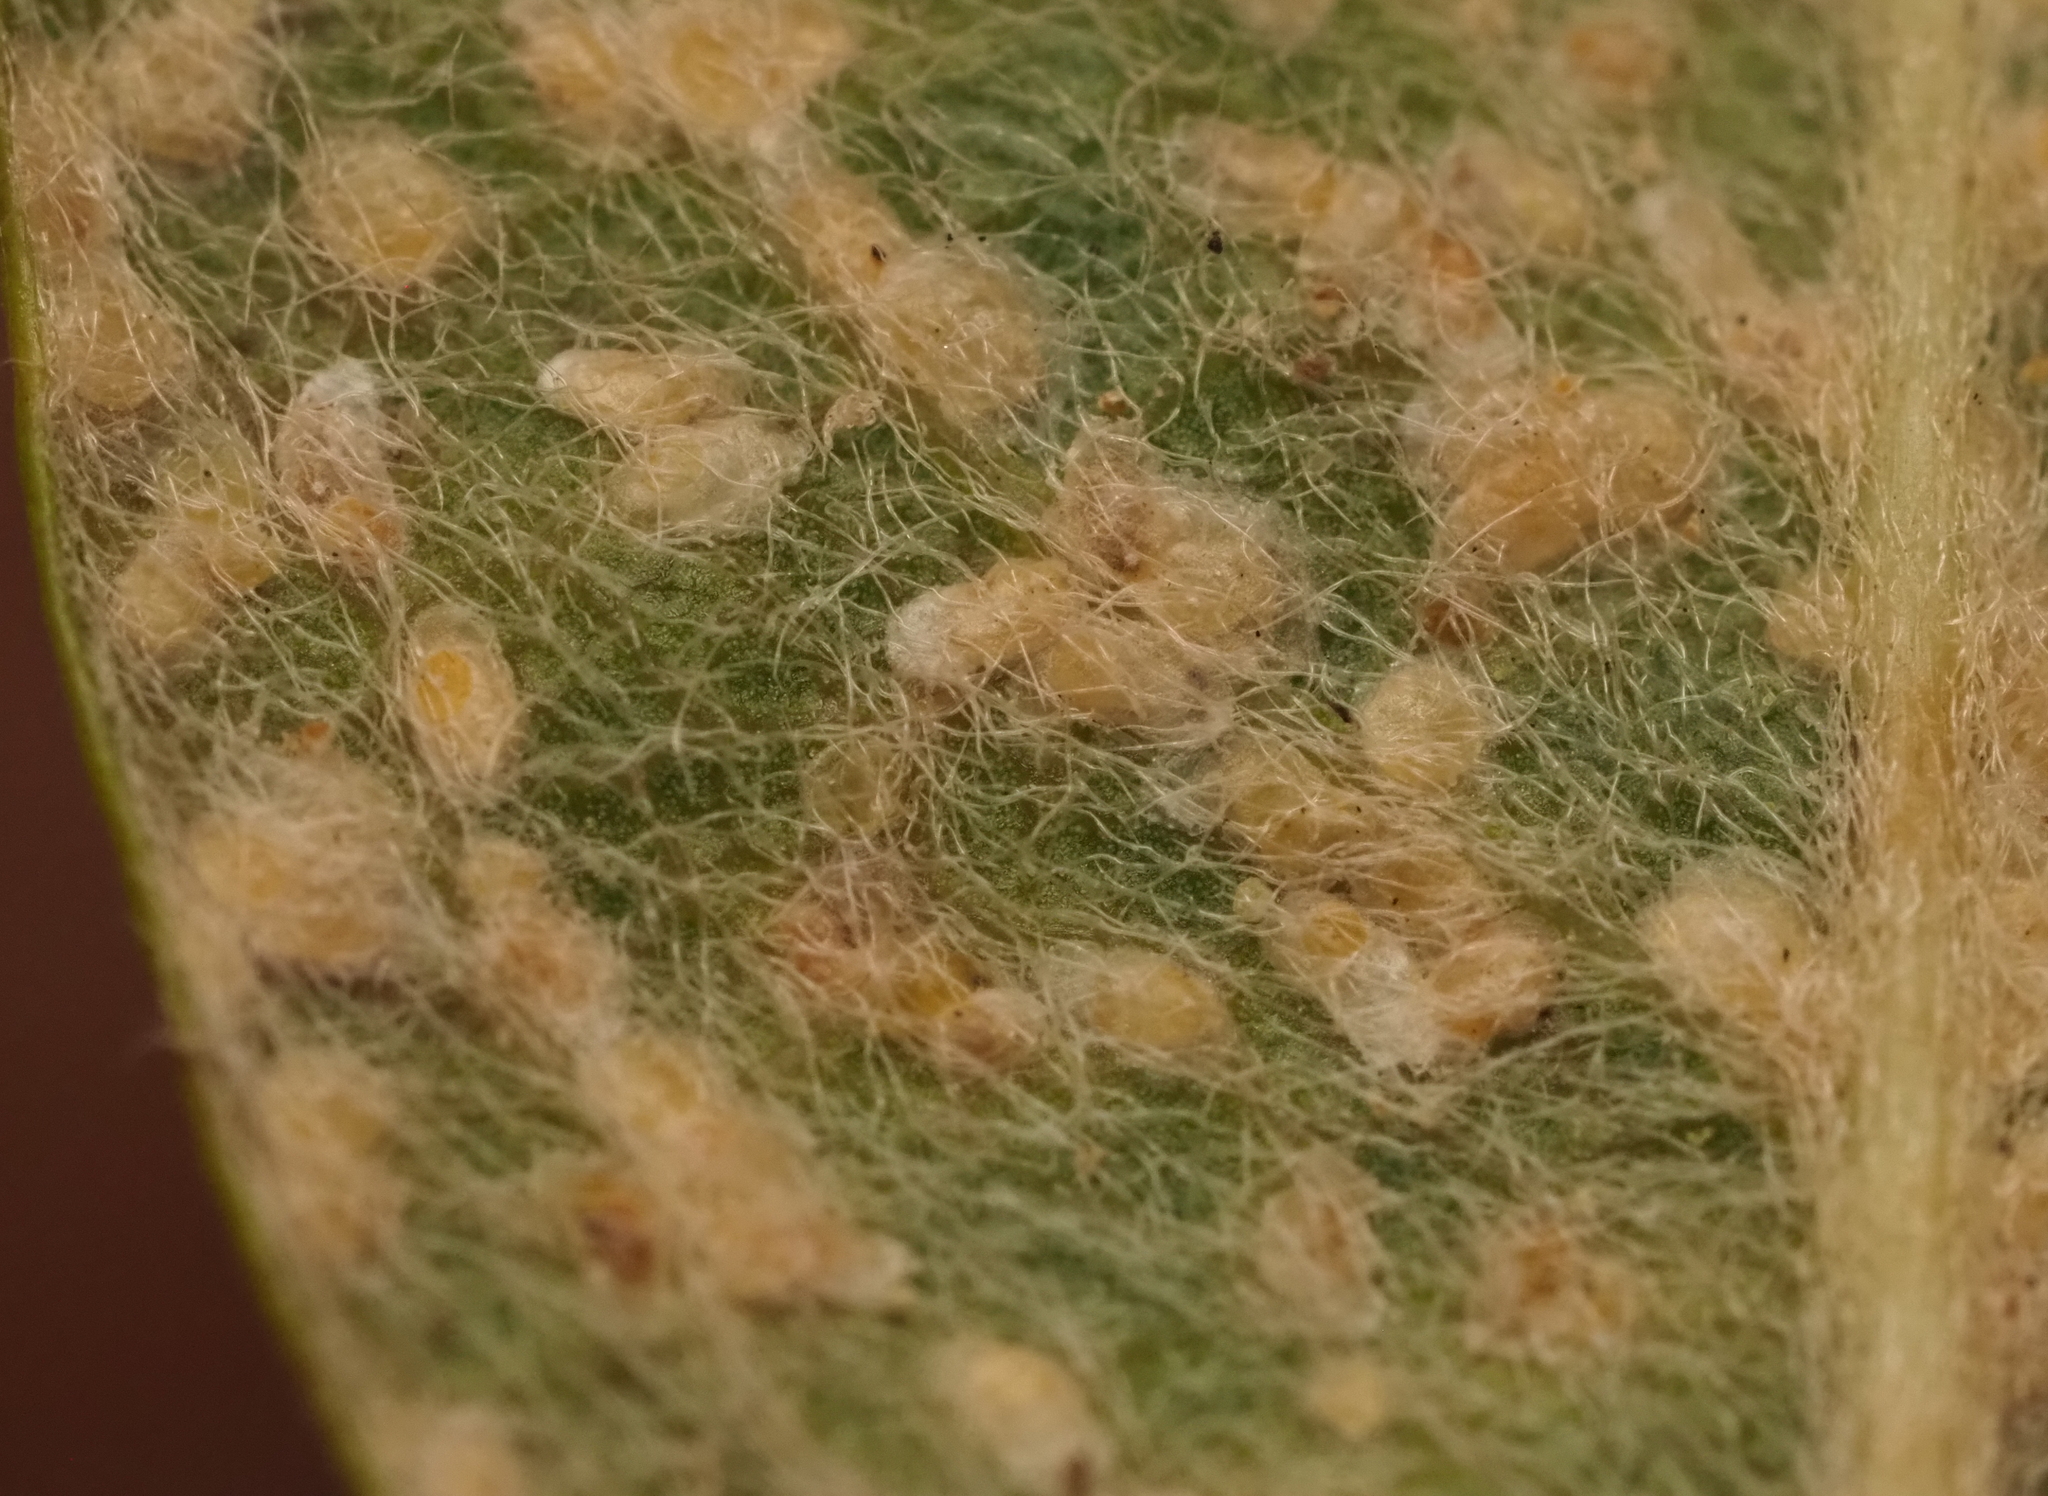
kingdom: Animalia
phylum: Arthropoda
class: Insecta
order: Hemiptera
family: Diaspididae
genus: Diaspidiotus
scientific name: Diaspidiotus bumeliae
